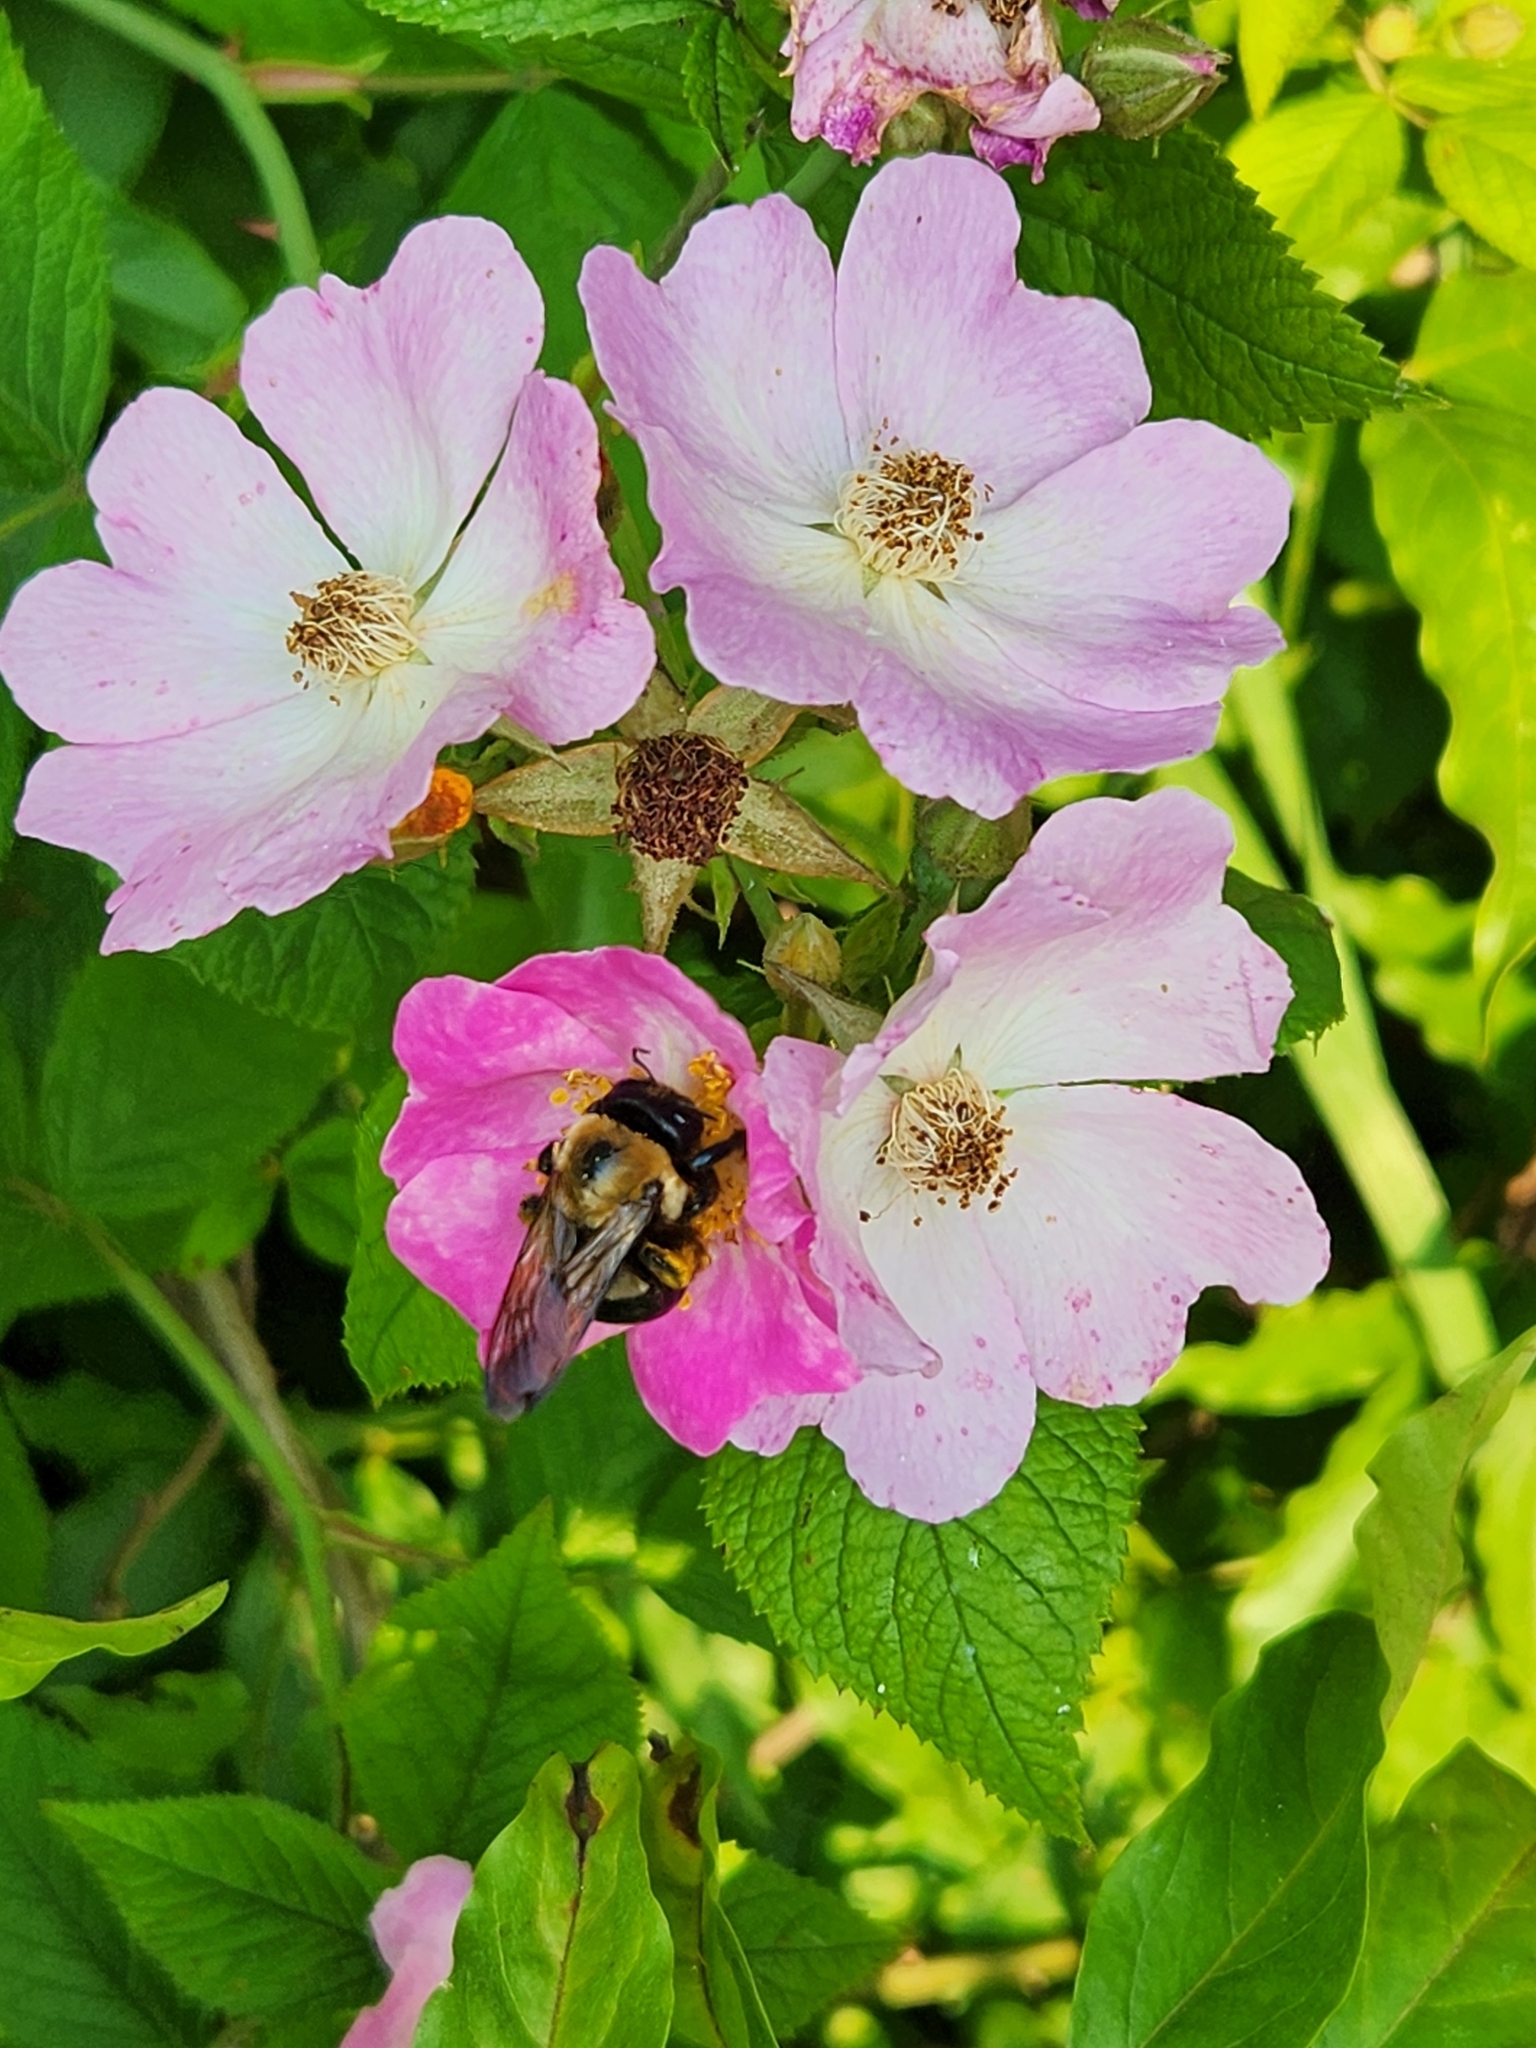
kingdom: Animalia
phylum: Arthropoda
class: Insecta
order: Hymenoptera
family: Apidae
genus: Xylocopa
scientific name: Xylocopa virginica
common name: Carpenter bee
